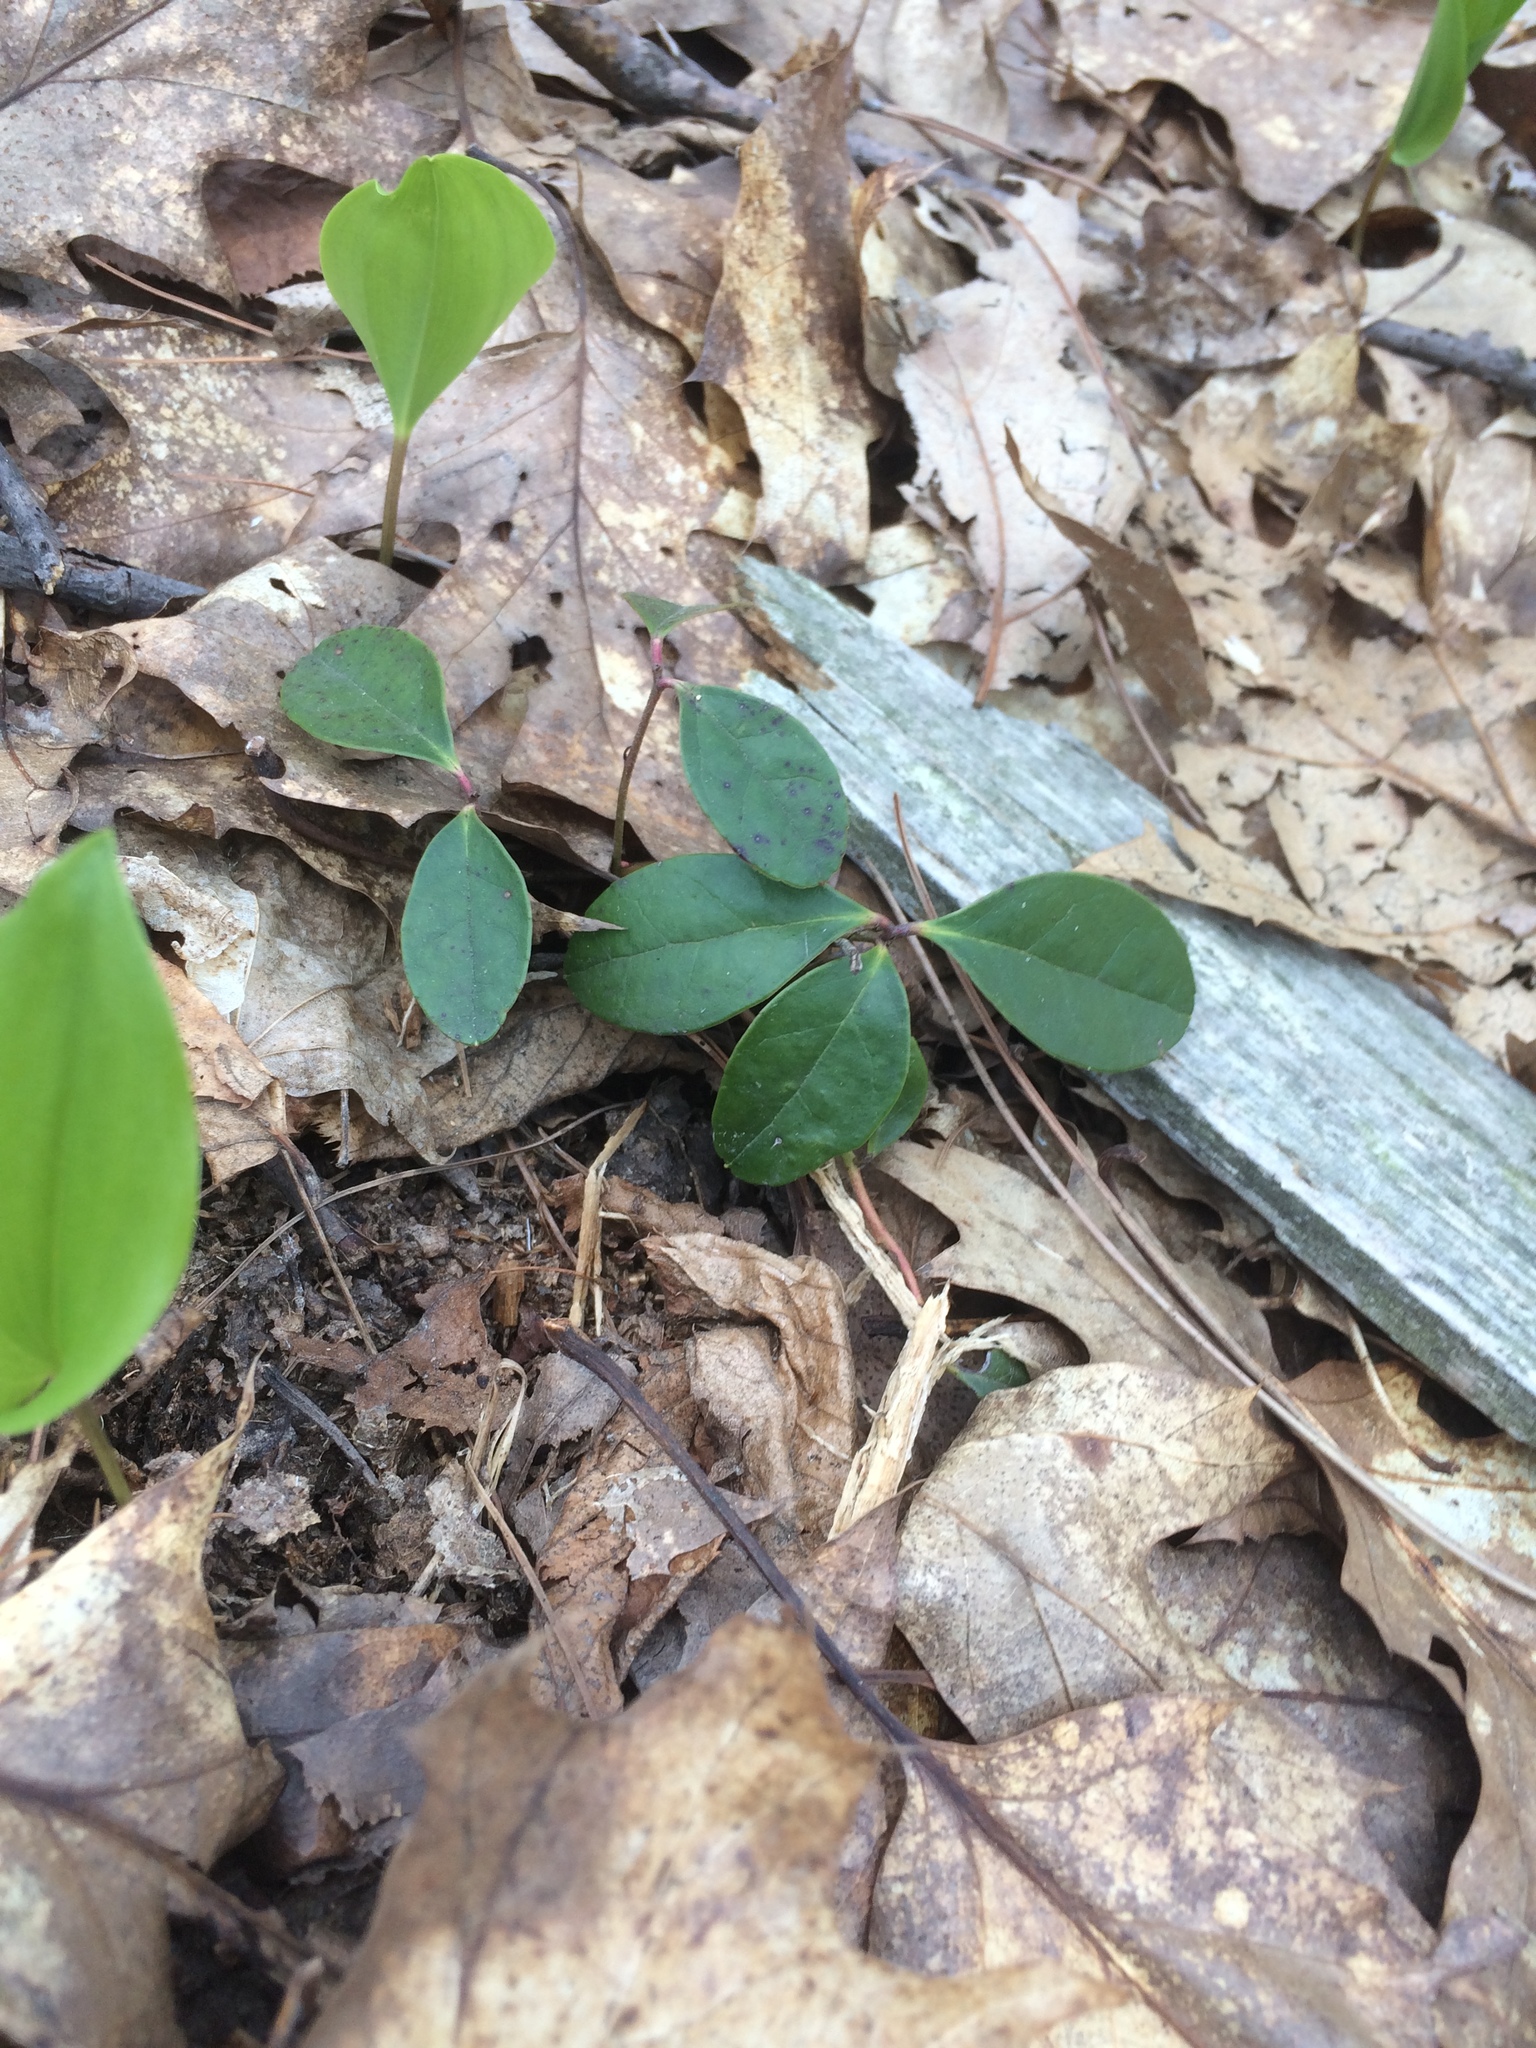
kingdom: Plantae
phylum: Tracheophyta
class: Magnoliopsida
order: Ericales
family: Ericaceae
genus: Gaultheria
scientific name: Gaultheria procumbens
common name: Checkerberry
